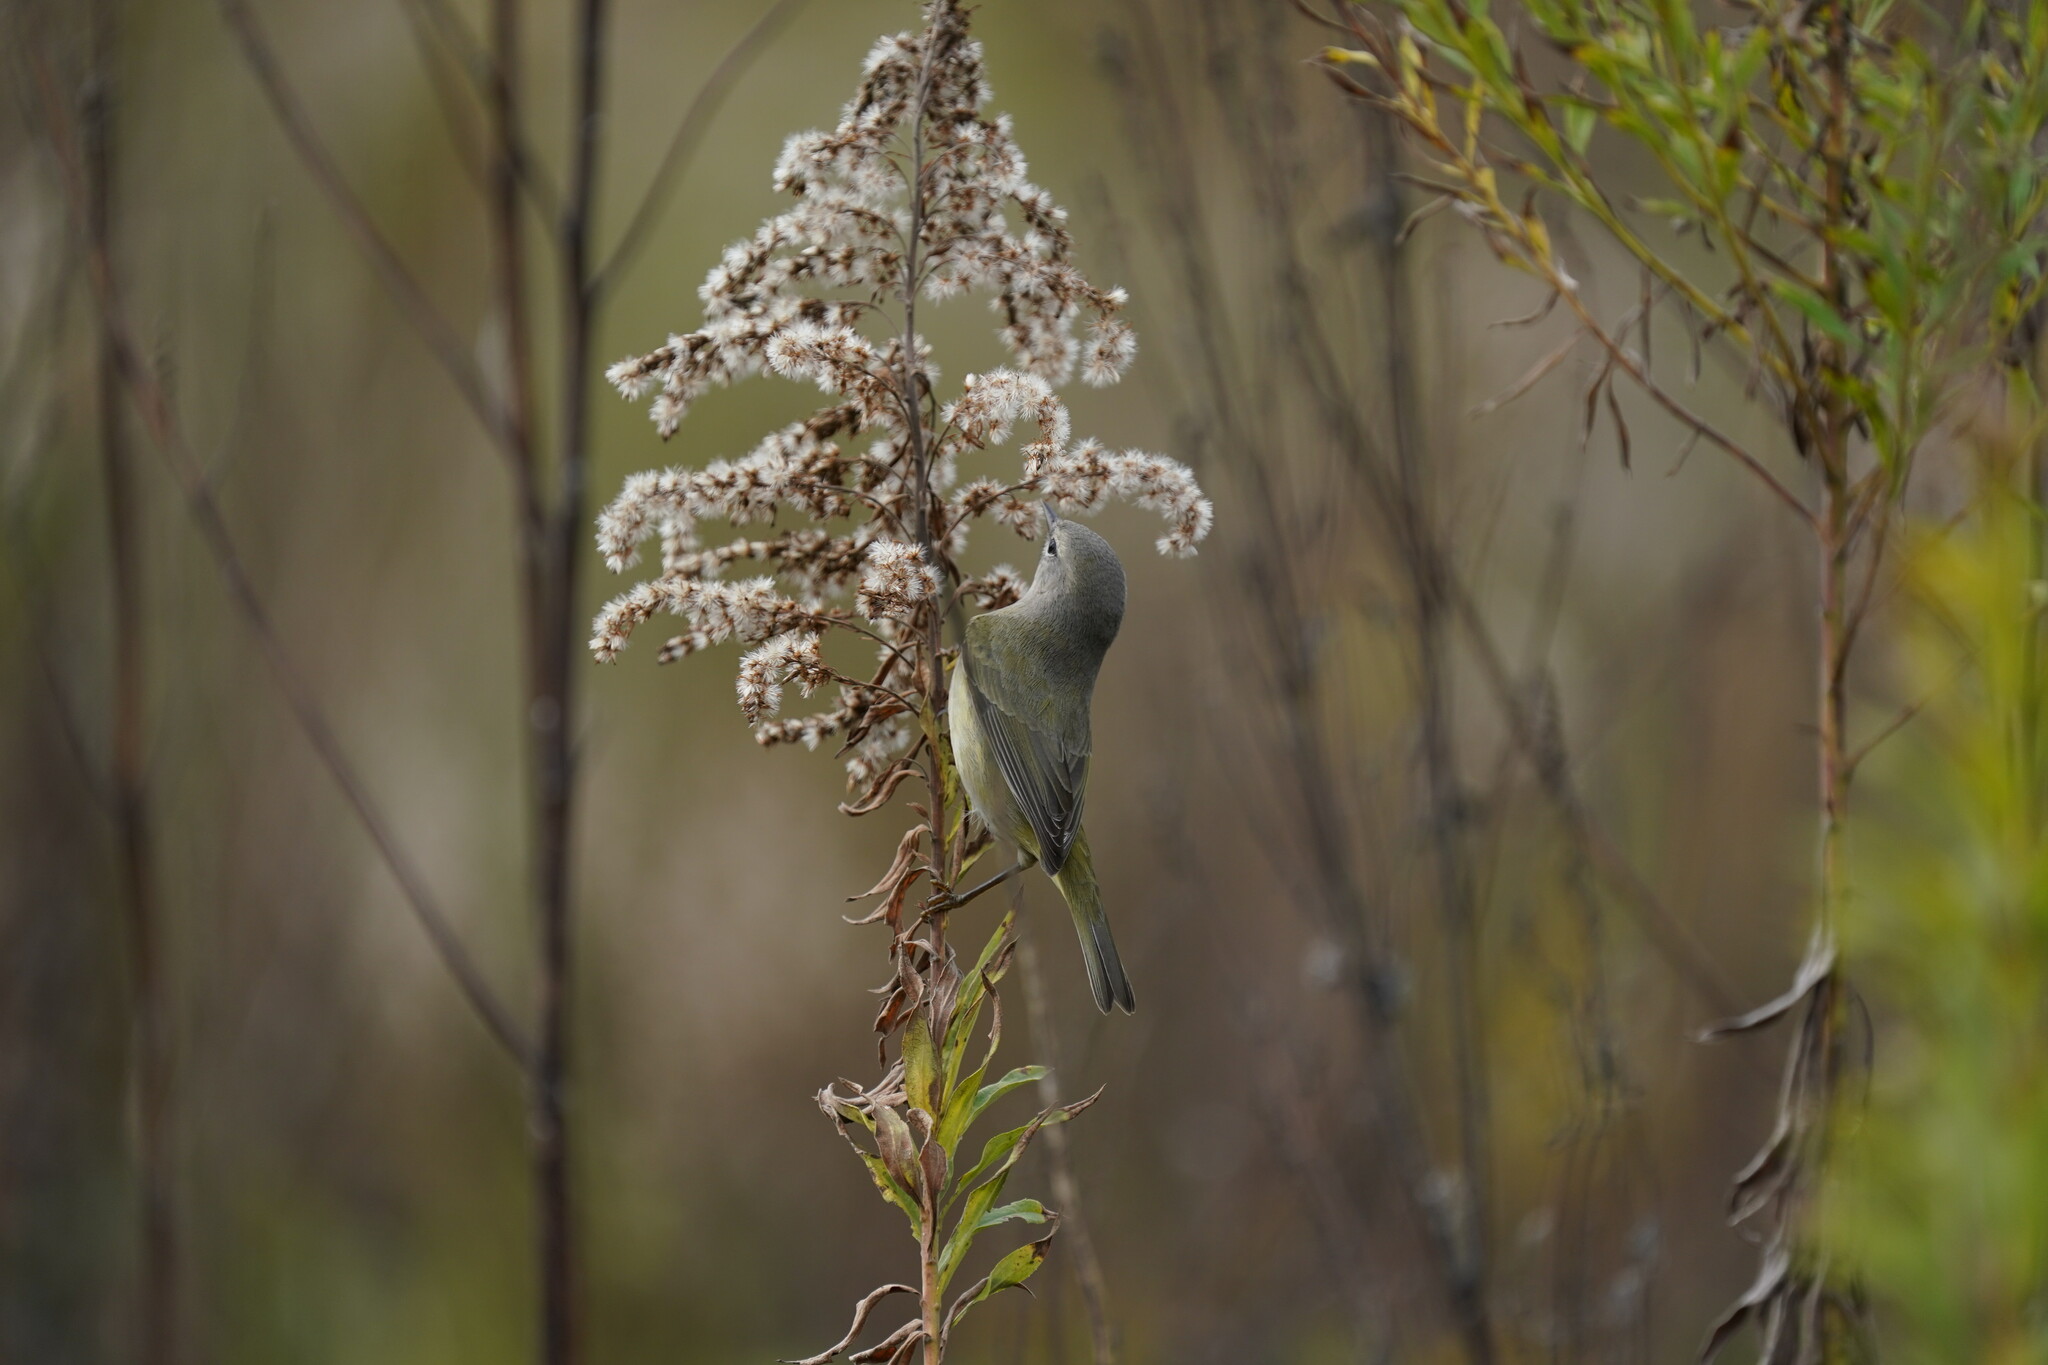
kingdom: Animalia
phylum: Chordata
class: Aves
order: Passeriformes
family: Parulidae
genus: Leiothlypis
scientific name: Leiothlypis celata
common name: Orange-crowned warbler
